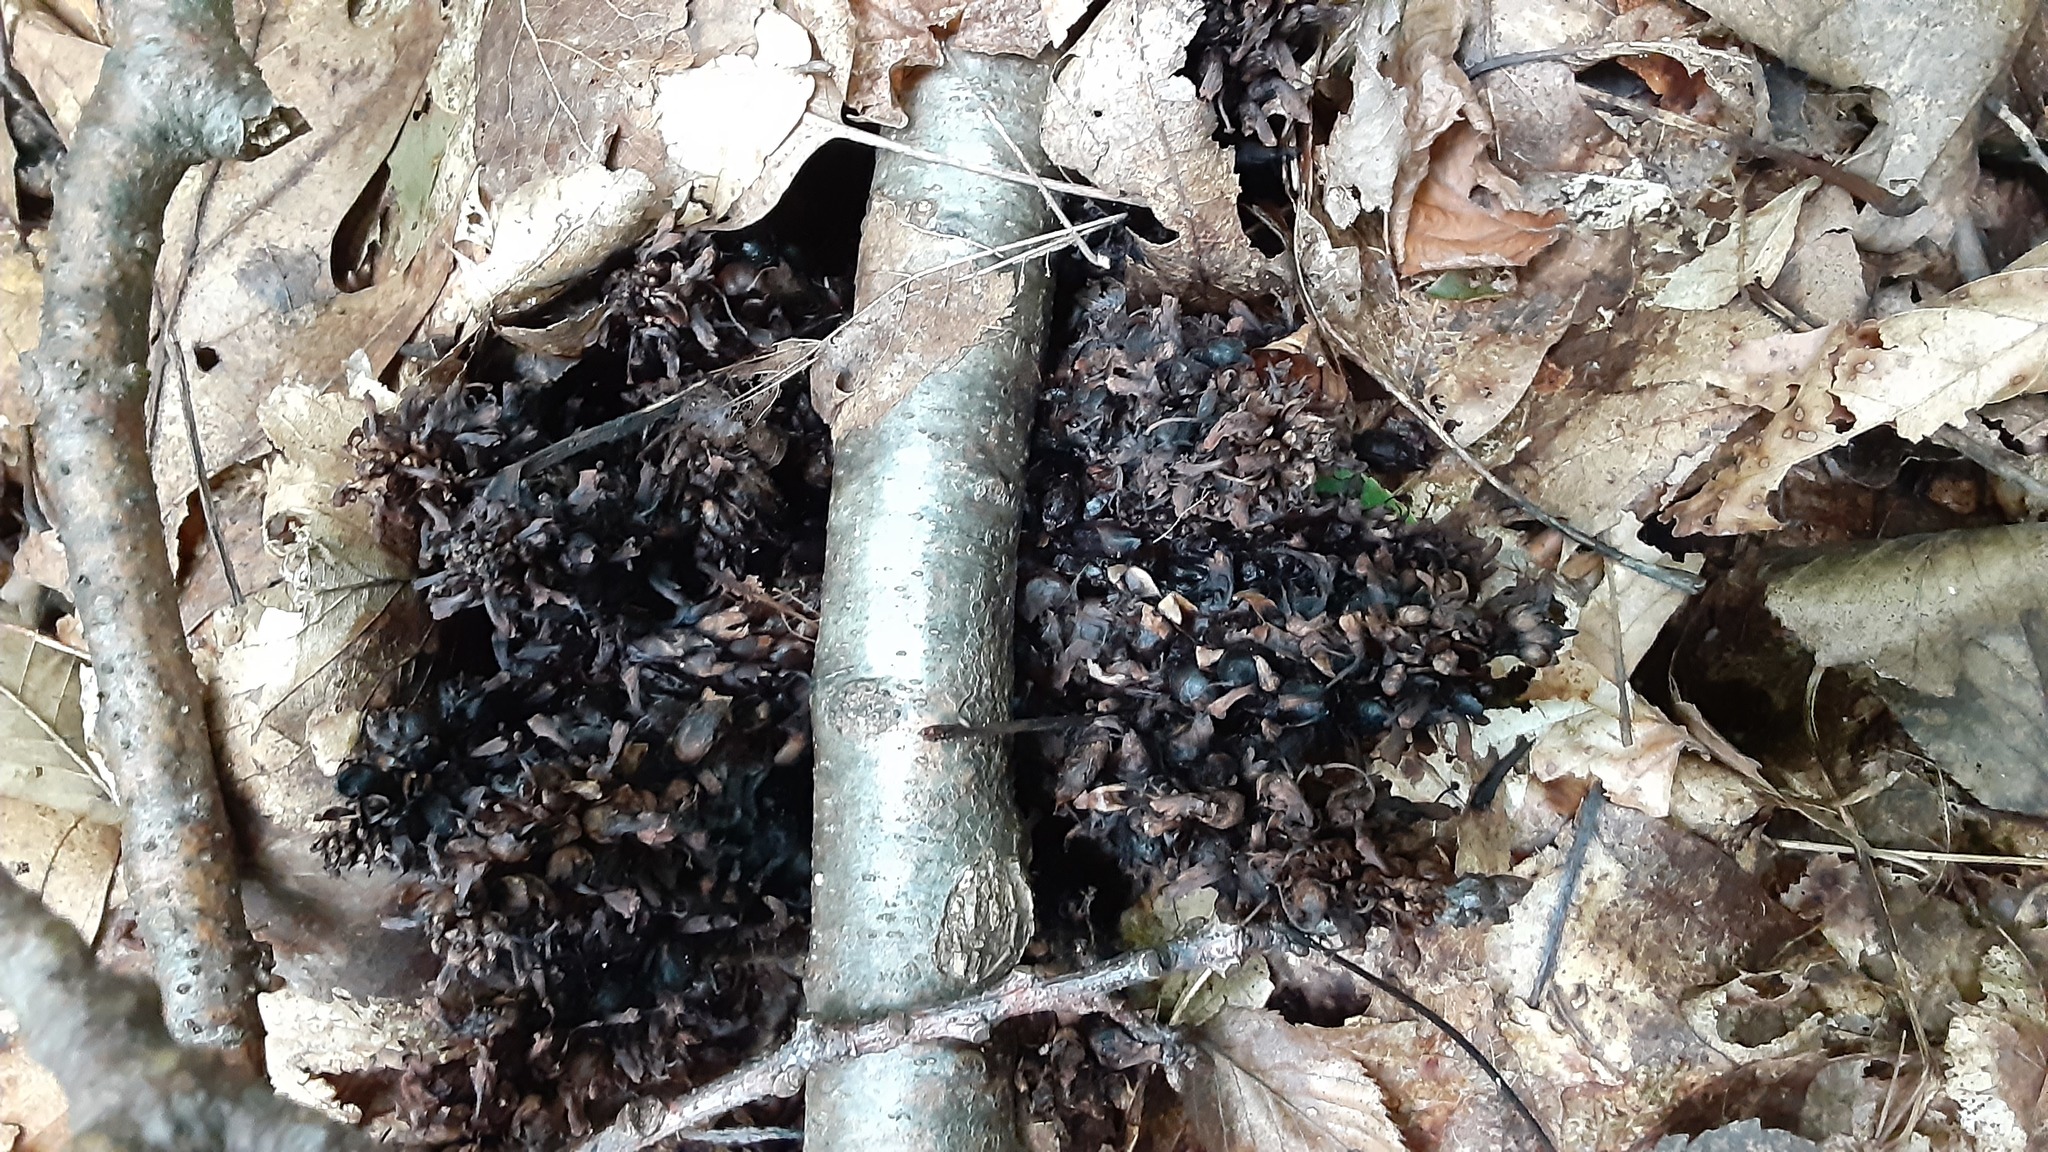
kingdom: Plantae
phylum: Tracheophyta
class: Magnoliopsida
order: Lamiales
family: Orobanchaceae
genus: Conopholis
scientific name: Conopholis americana
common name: American cancer-root
